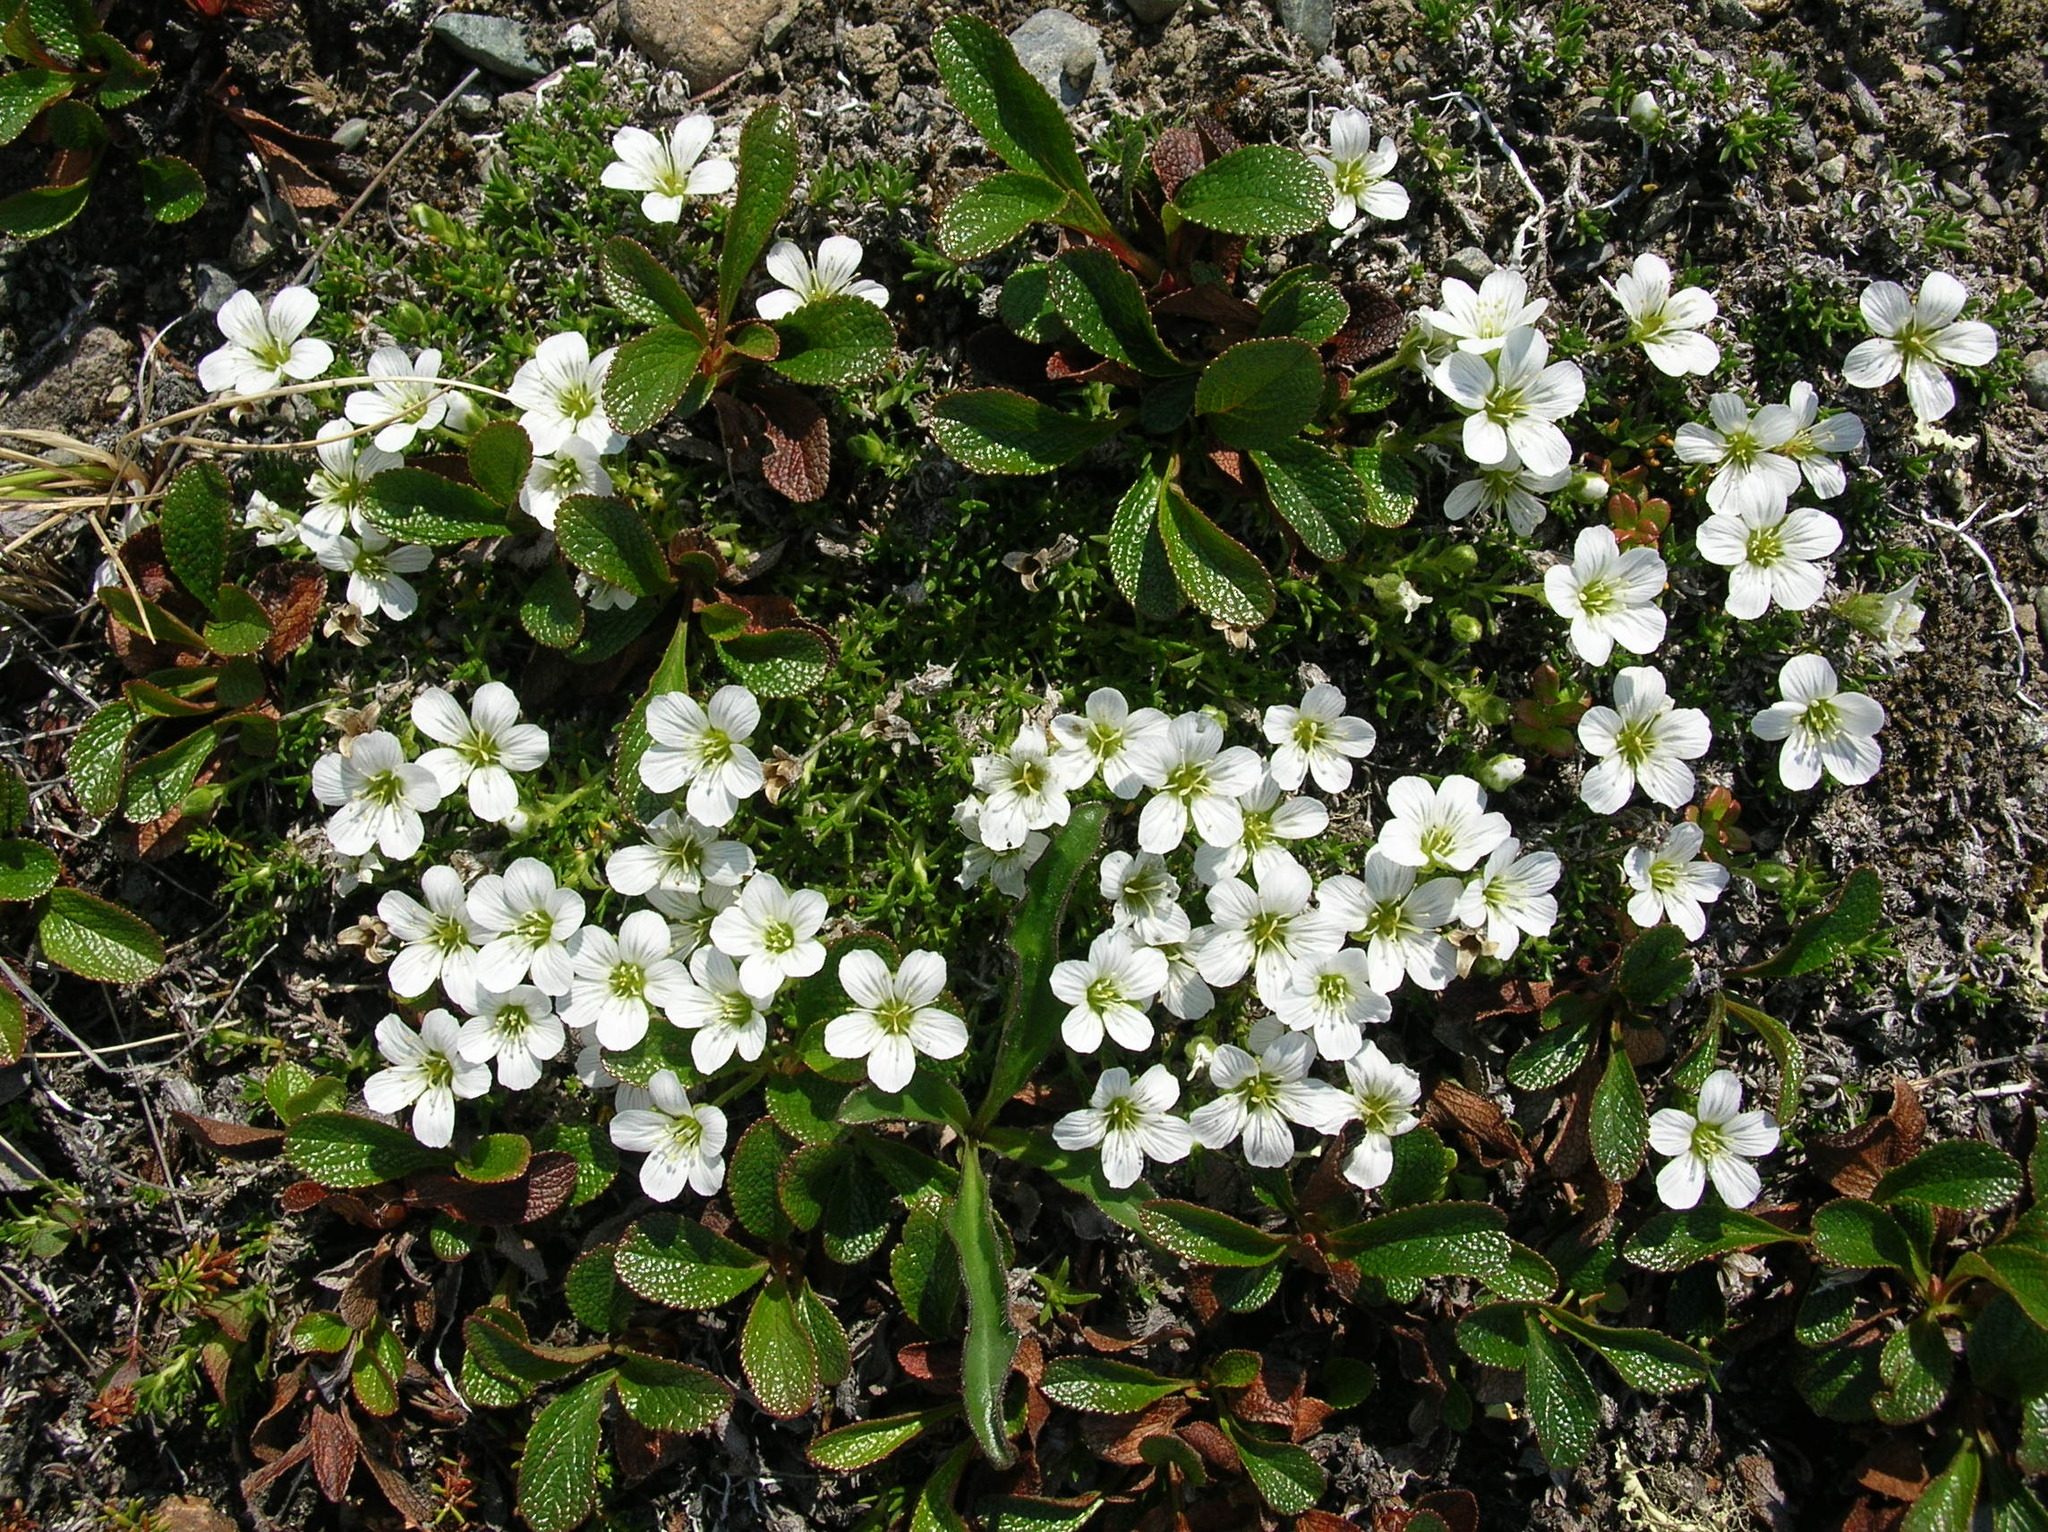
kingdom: Plantae
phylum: Tracheophyta
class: Magnoliopsida
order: Ericales
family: Ericaceae
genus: Arctostaphylos
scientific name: Arctostaphylos alpinus
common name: Alpine bearberry
